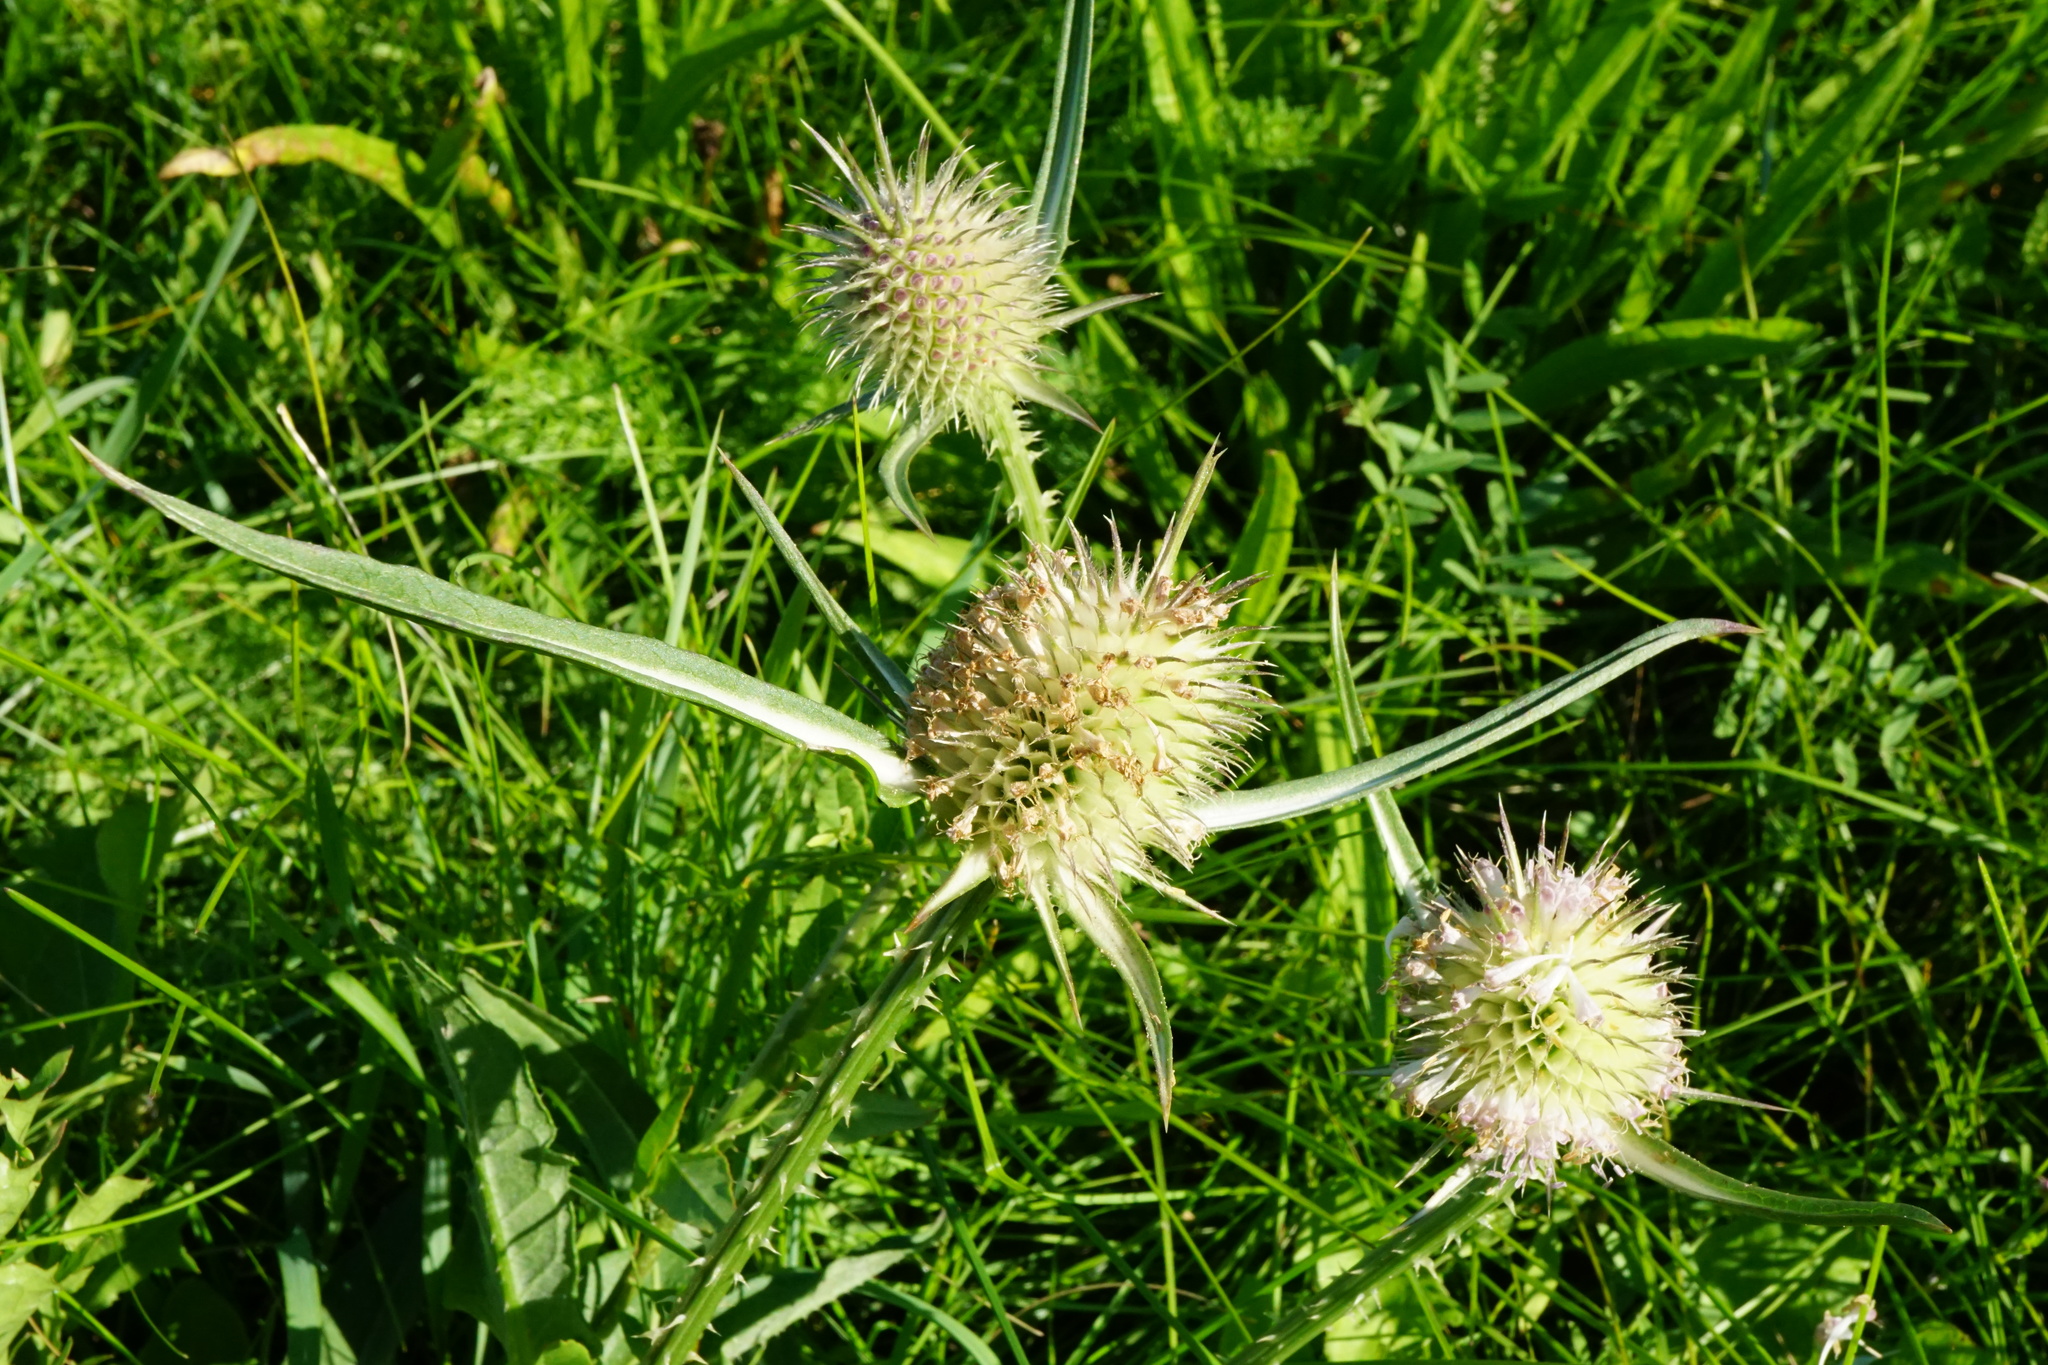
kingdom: Plantae
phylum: Tracheophyta
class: Magnoliopsida
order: Dipsacales
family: Caprifoliaceae
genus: Dipsacus
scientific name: Dipsacus pseudosylvestris
